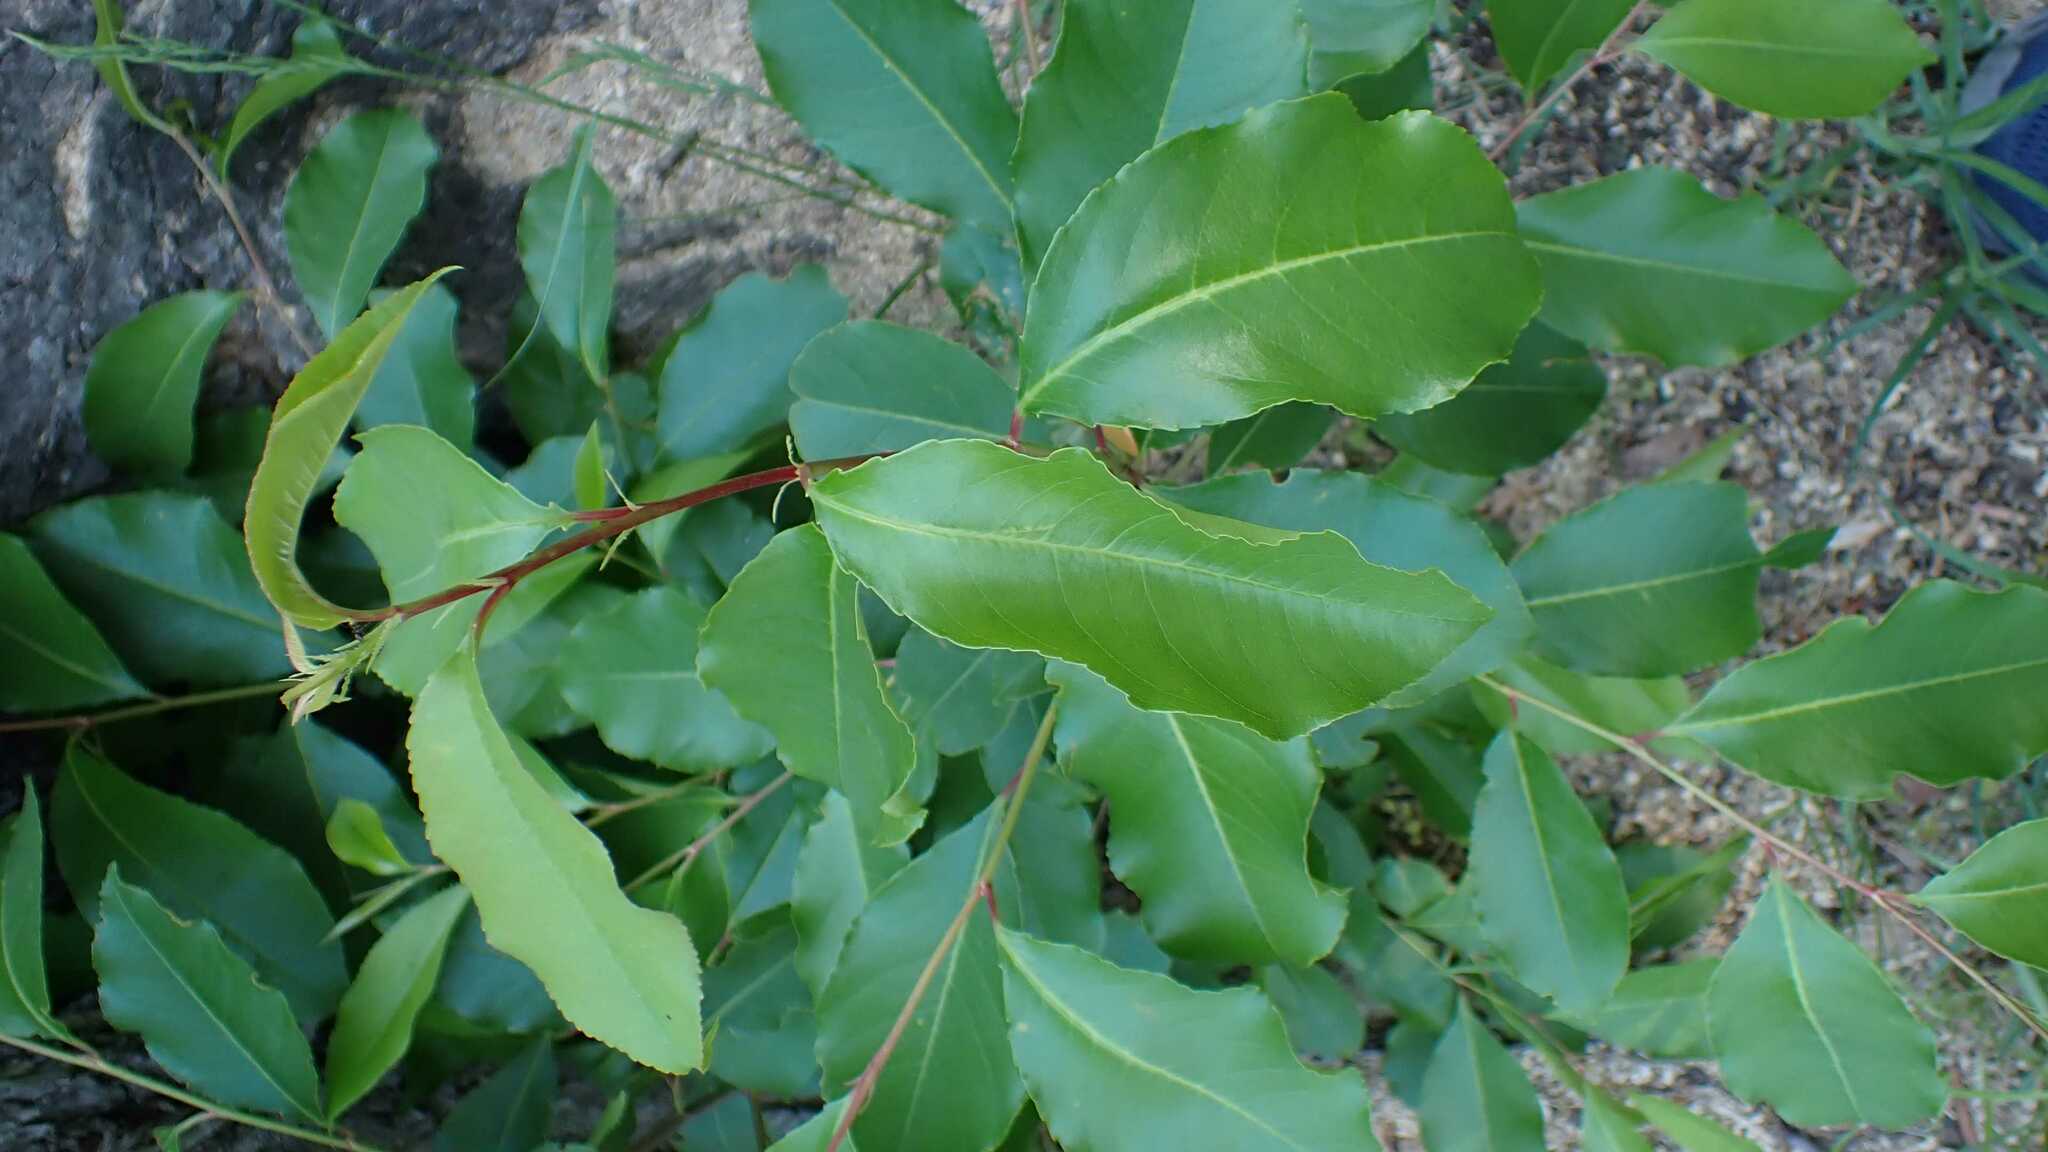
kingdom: Plantae
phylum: Tracheophyta
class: Magnoliopsida
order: Rosales
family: Rosaceae
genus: Prunus
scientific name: Prunus serotina
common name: Black cherry
